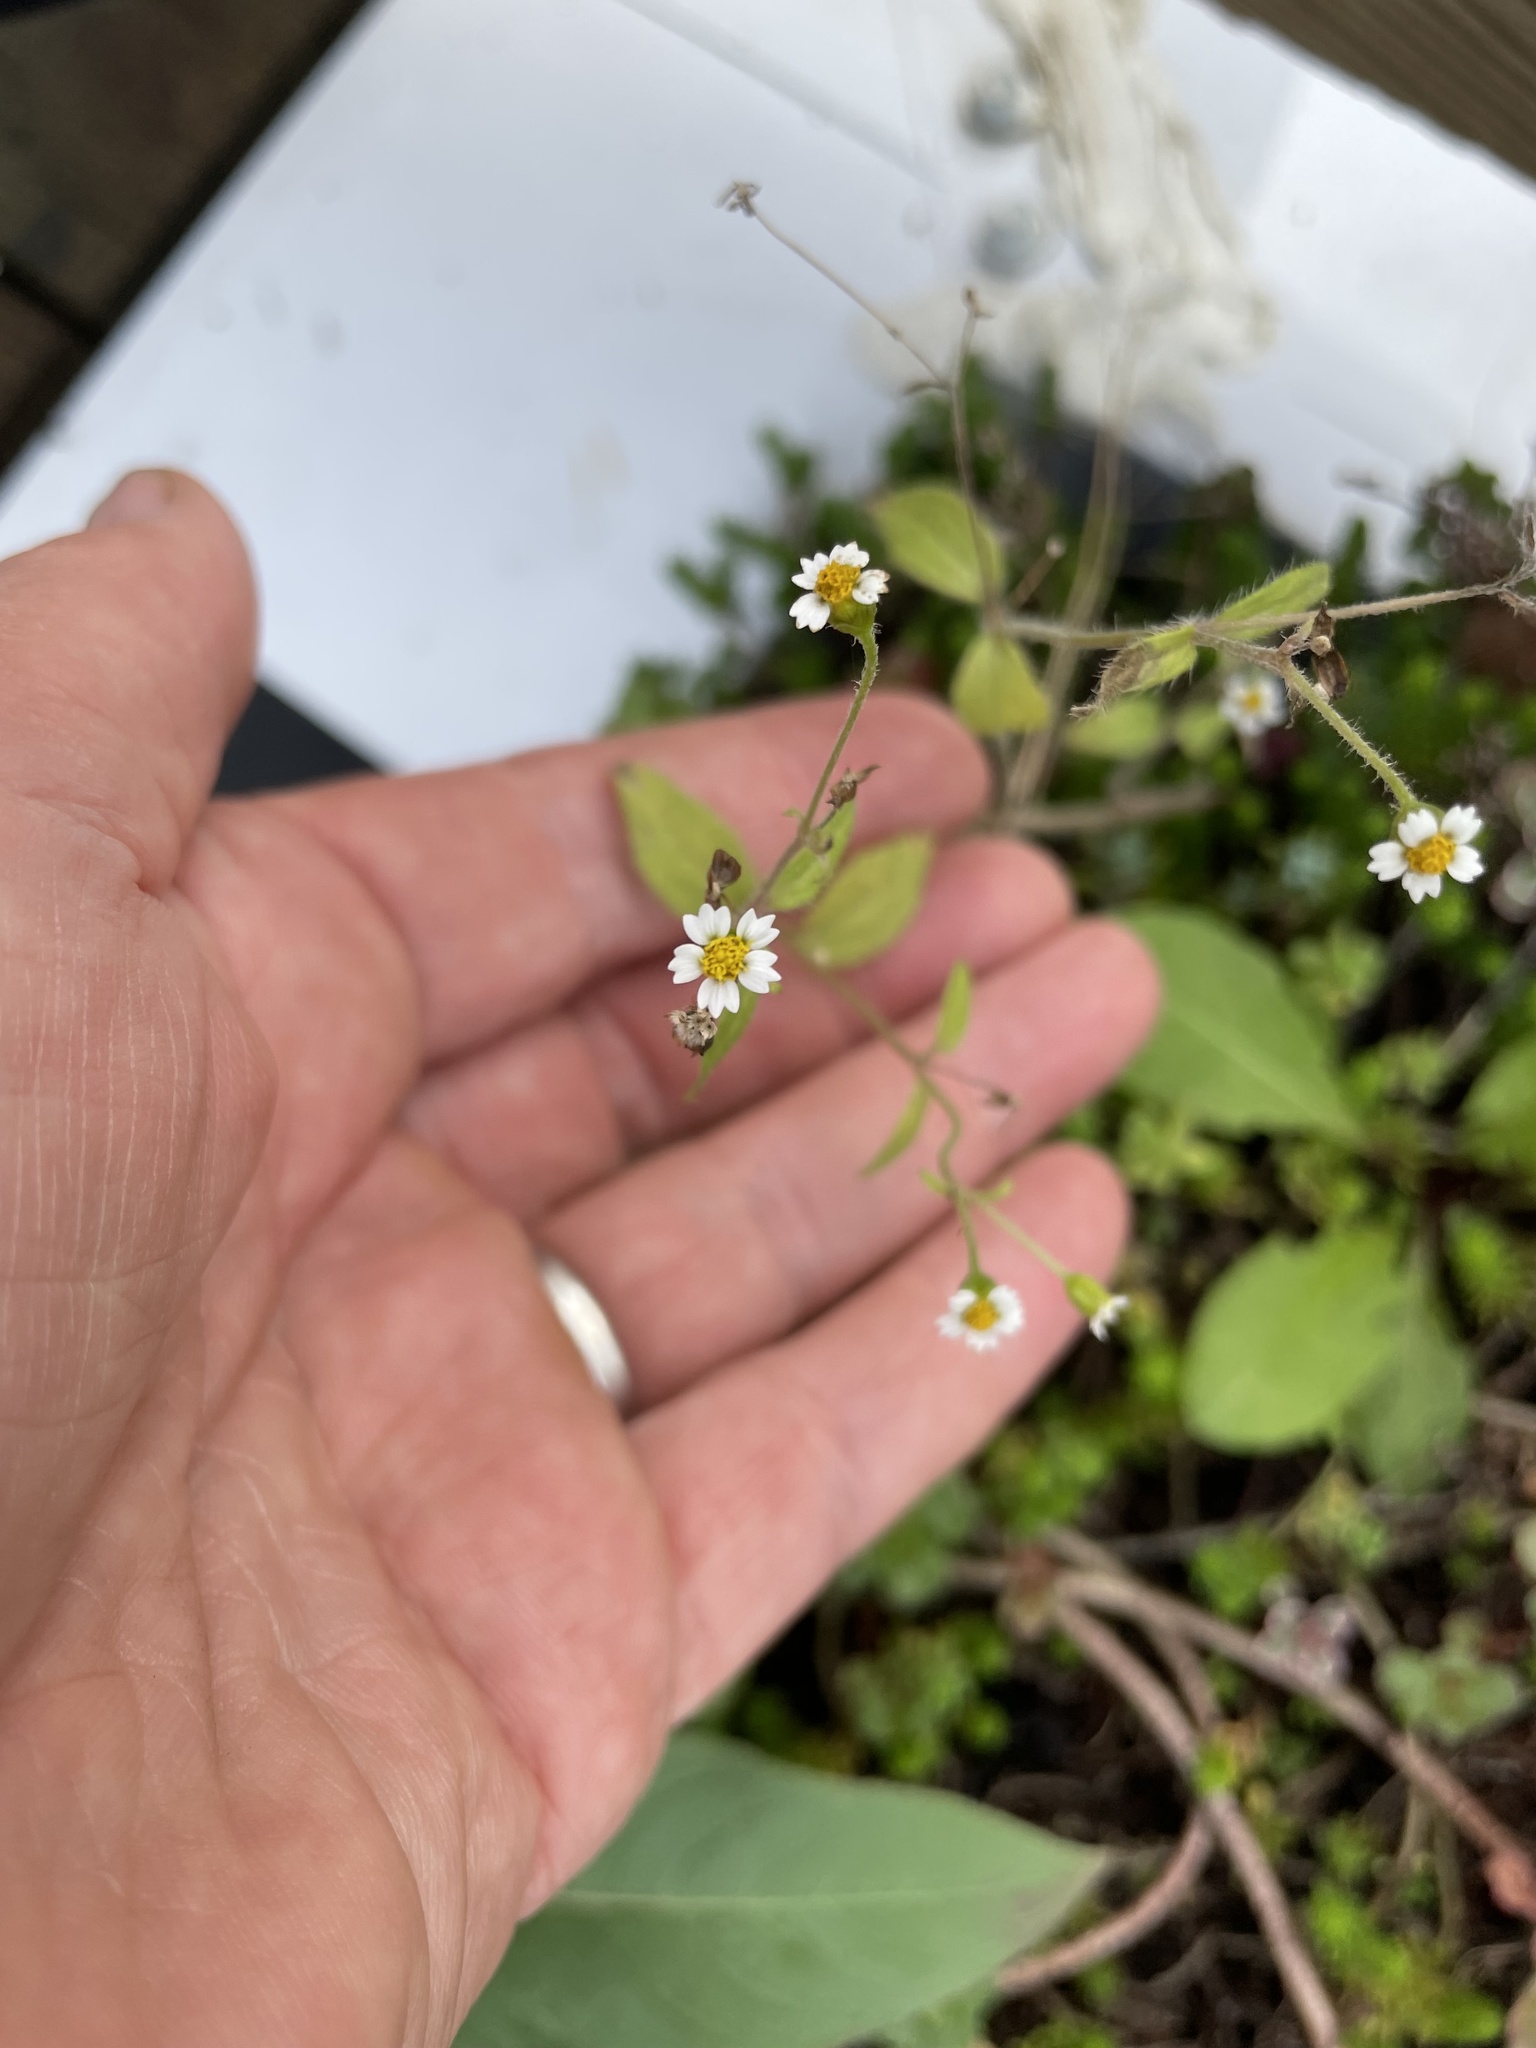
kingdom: Plantae
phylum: Tracheophyta
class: Magnoliopsida
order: Asterales
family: Asteraceae
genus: Galinsoga
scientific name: Galinsoga quadriradiata
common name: Shaggy soldier
